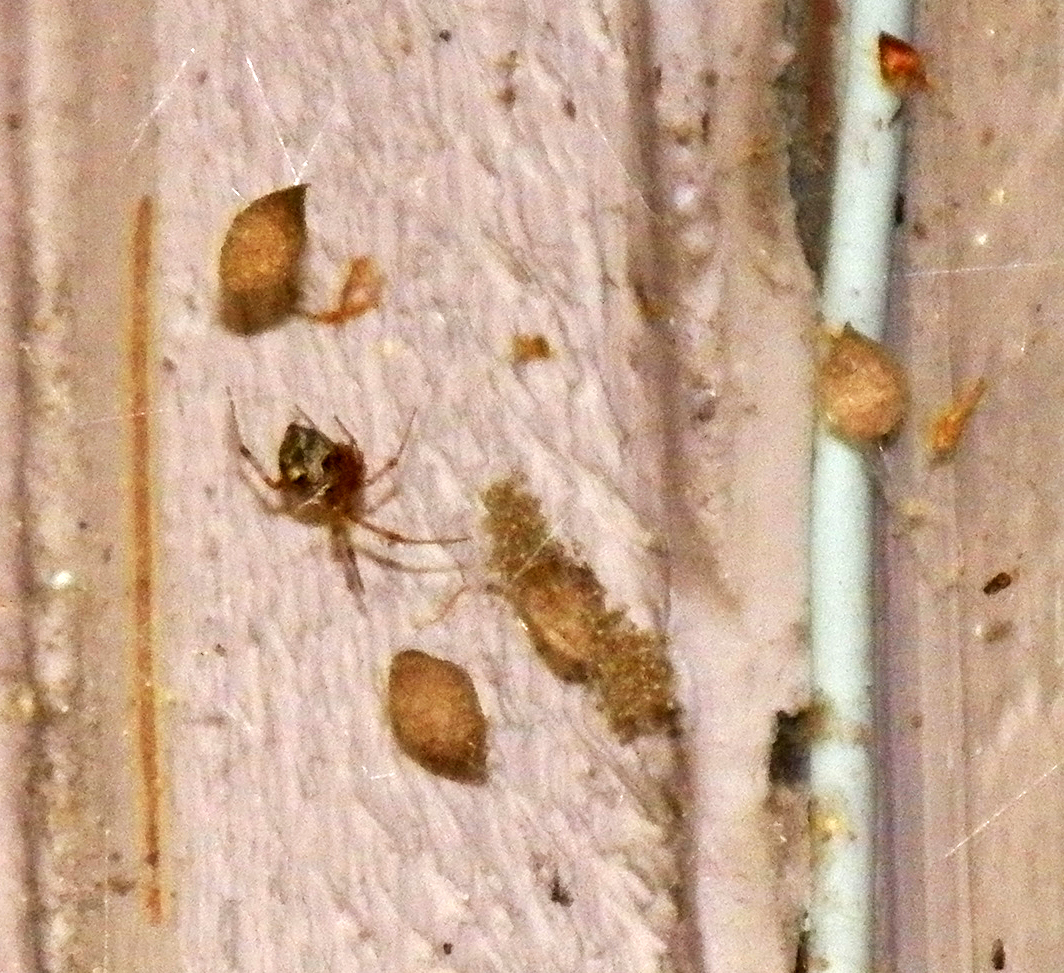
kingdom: Animalia
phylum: Arthropoda
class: Arachnida
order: Araneae
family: Theridiidae
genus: Parasteatoda
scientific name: Parasteatoda tepidariorum
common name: Common house spider
